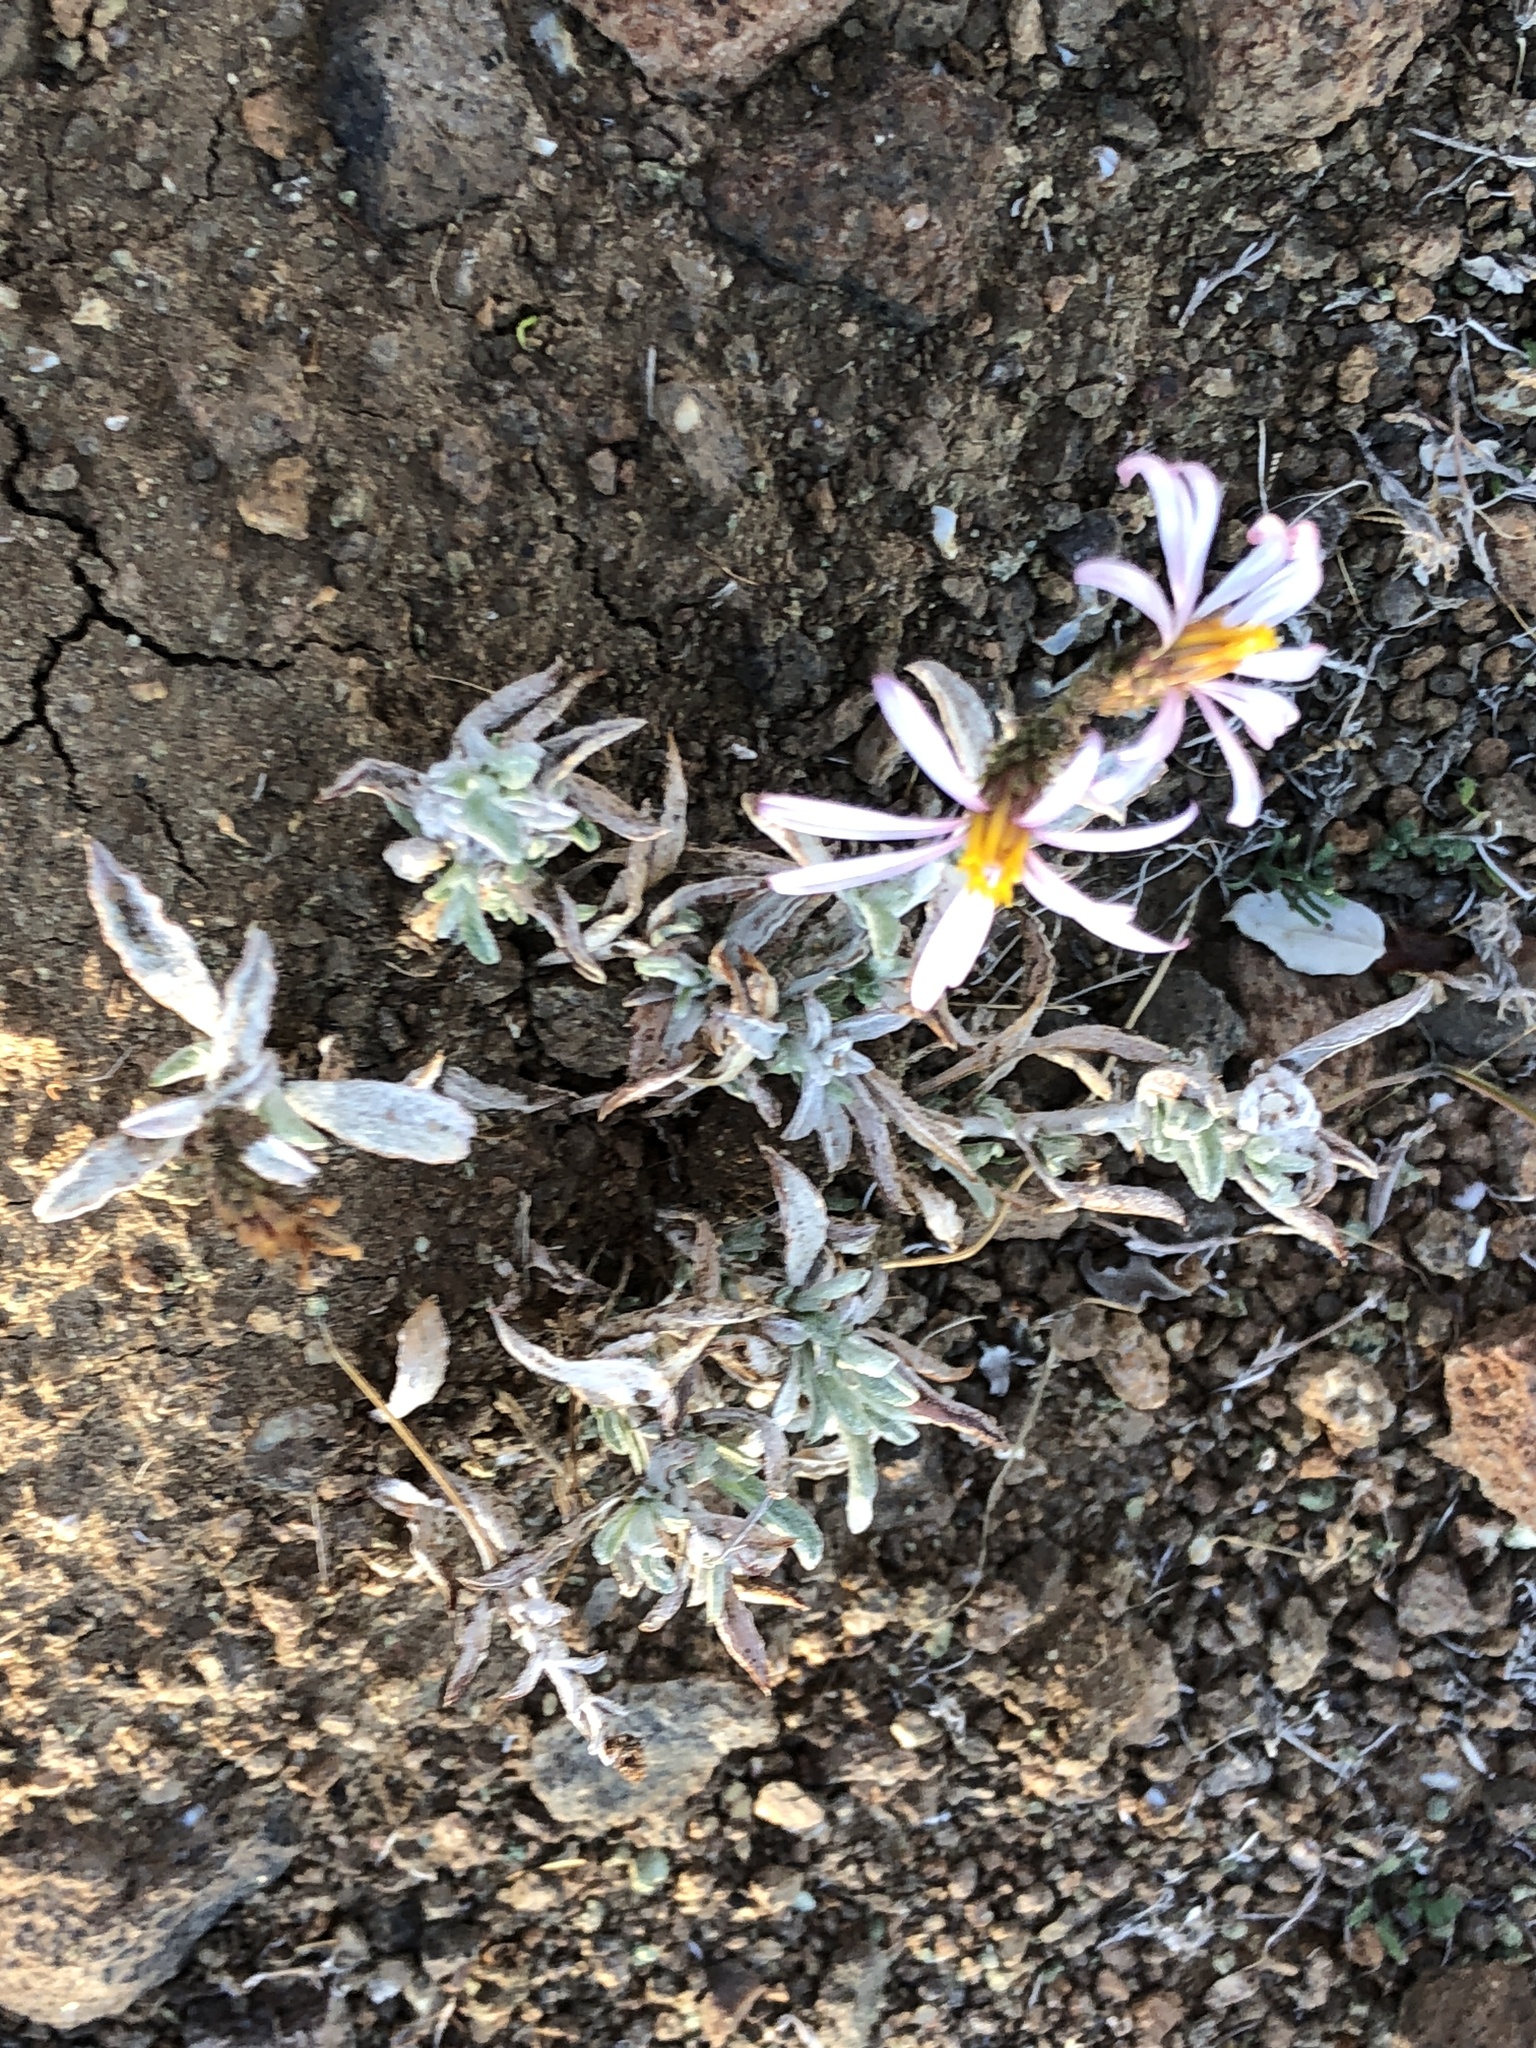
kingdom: Plantae
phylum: Tracheophyta
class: Magnoliopsida
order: Asterales
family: Asteraceae
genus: Corethrogyne
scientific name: Corethrogyne filaginifolia
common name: Sand-aster
